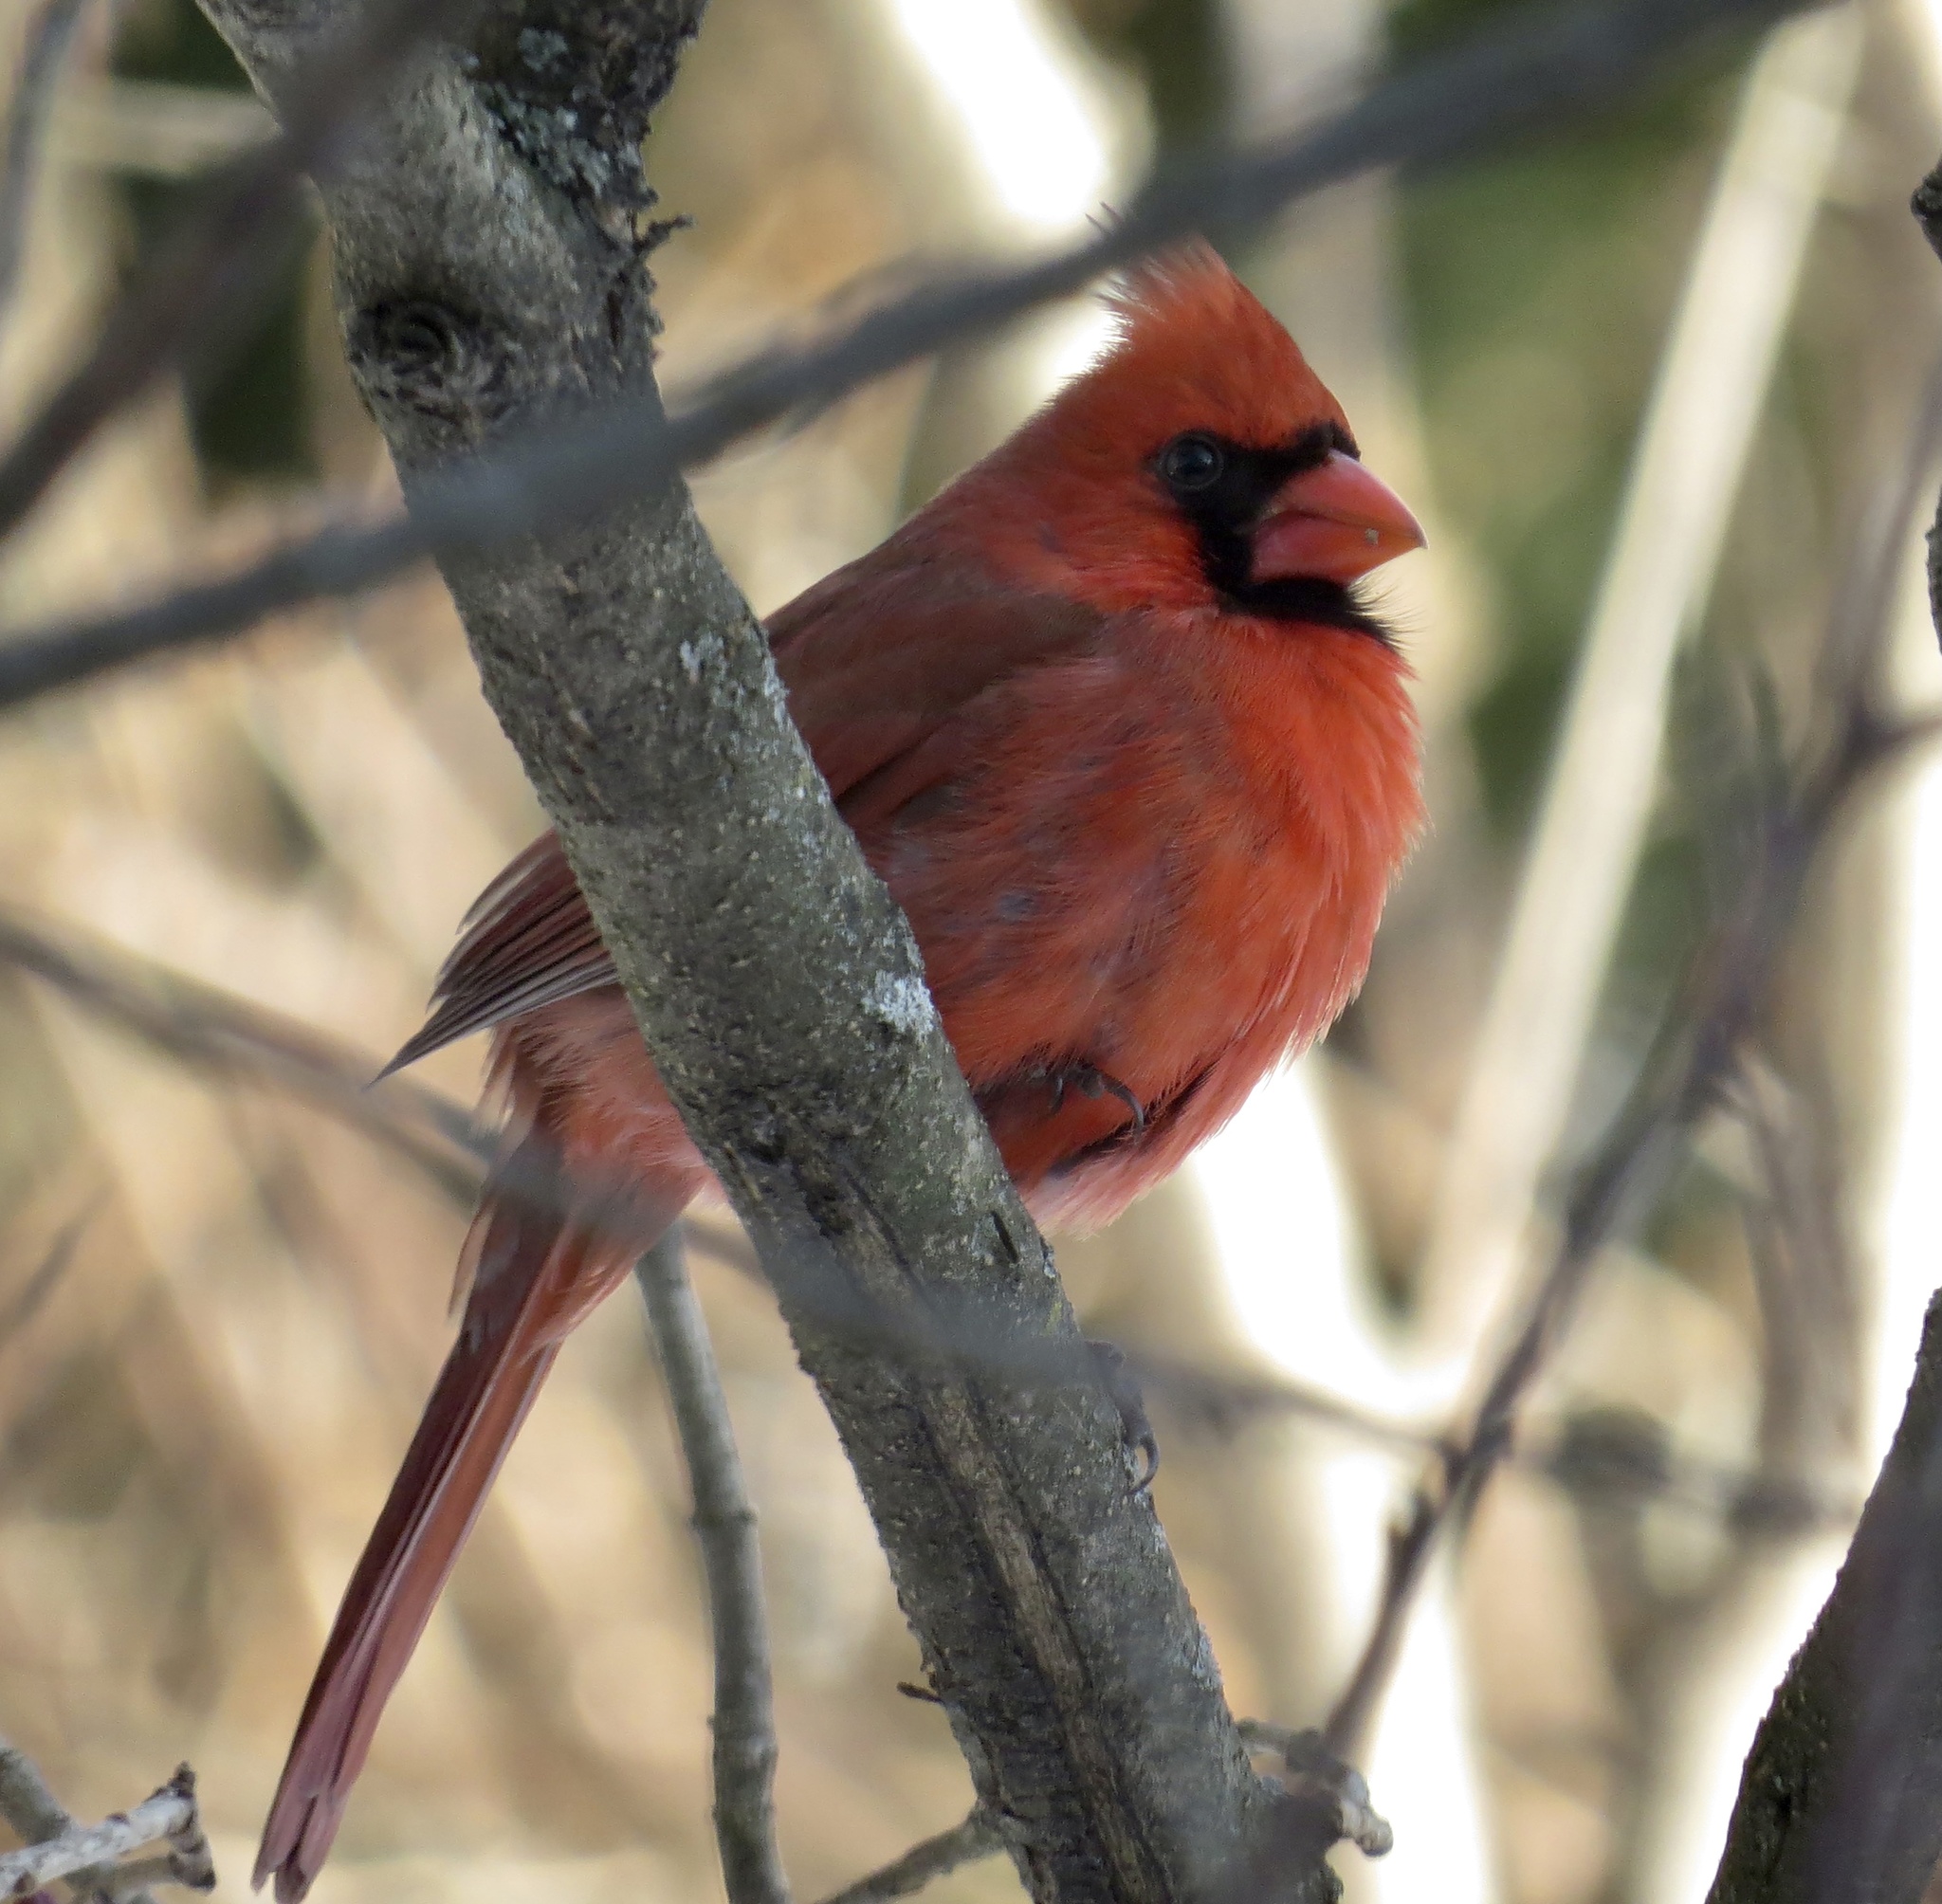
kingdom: Animalia
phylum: Chordata
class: Aves
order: Passeriformes
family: Cardinalidae
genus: Cardinalis
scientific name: Cardinalis cardinalis
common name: Northern cardinal
